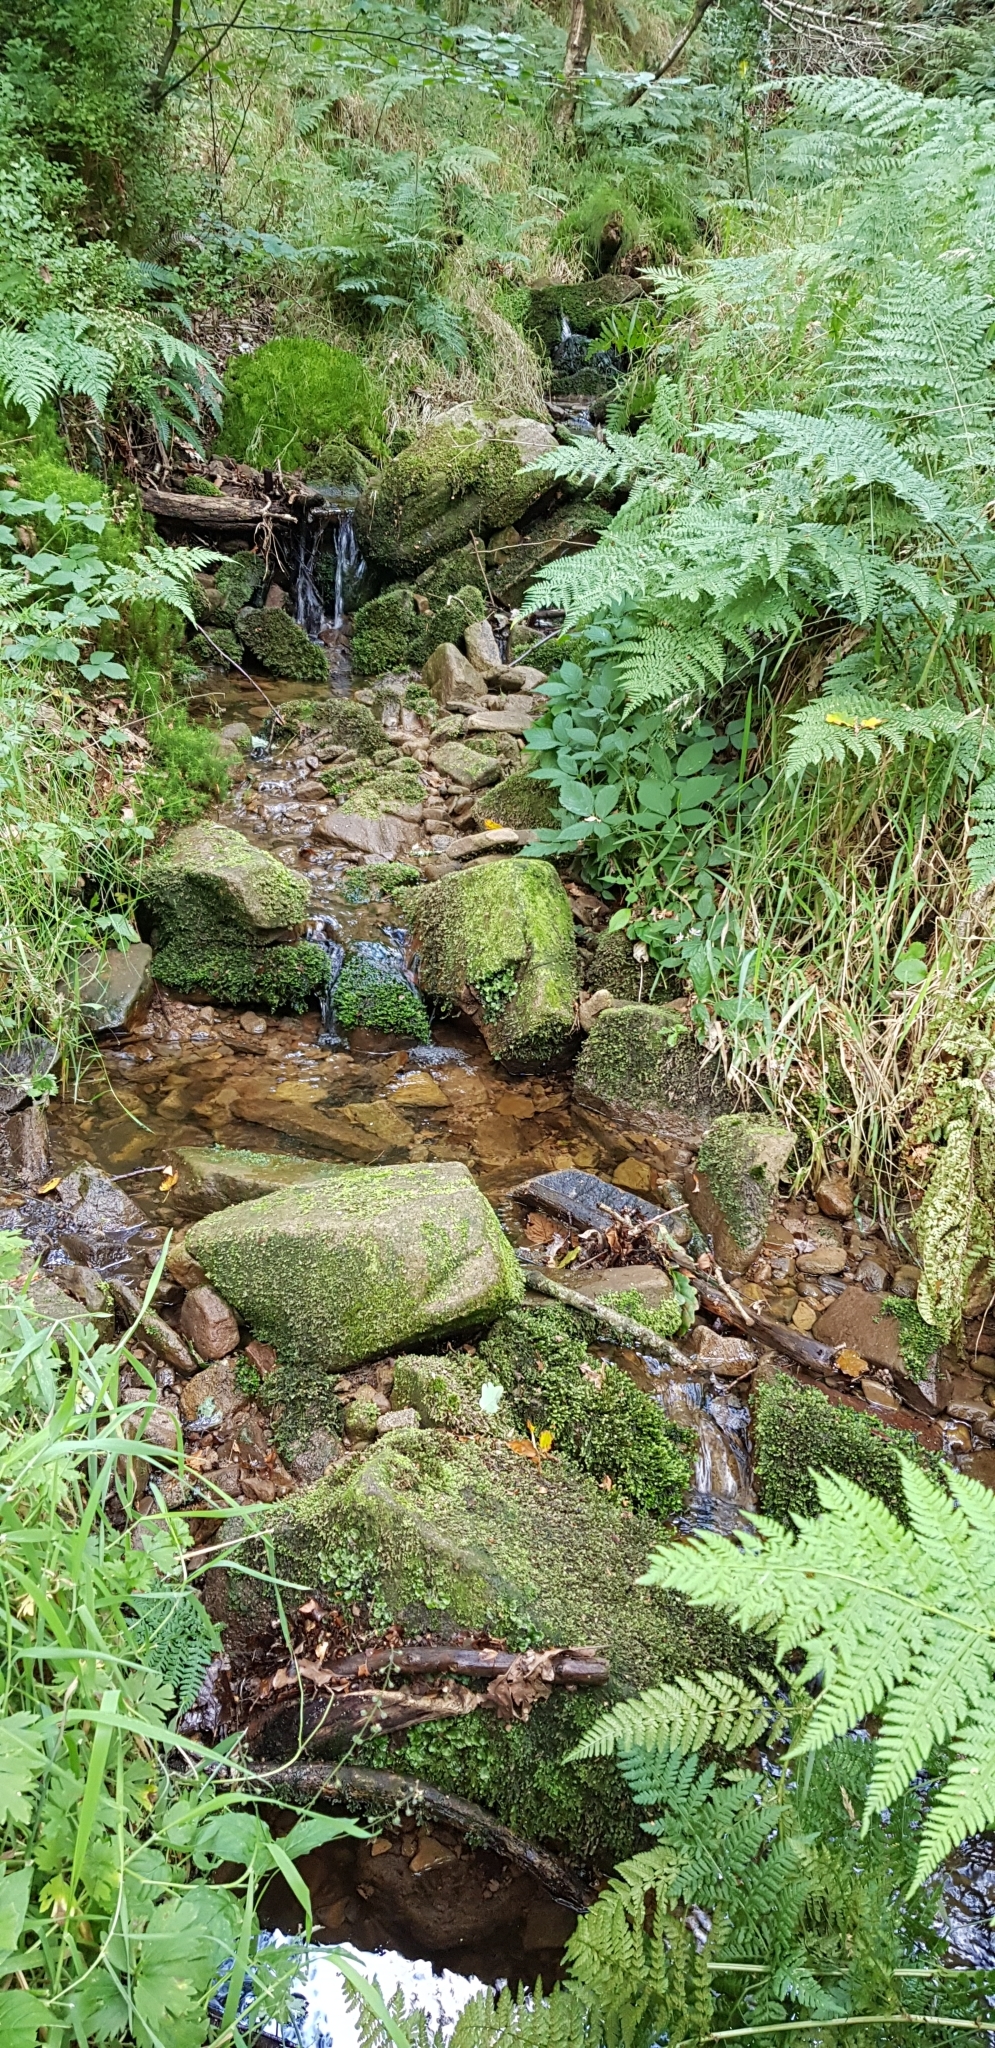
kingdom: Plantae
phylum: Marchantiophyta
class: Jungermanniopsida
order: Jungermanniales
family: Scapaniaceae
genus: Scapania
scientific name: Scapania undulata
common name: Water earwort
